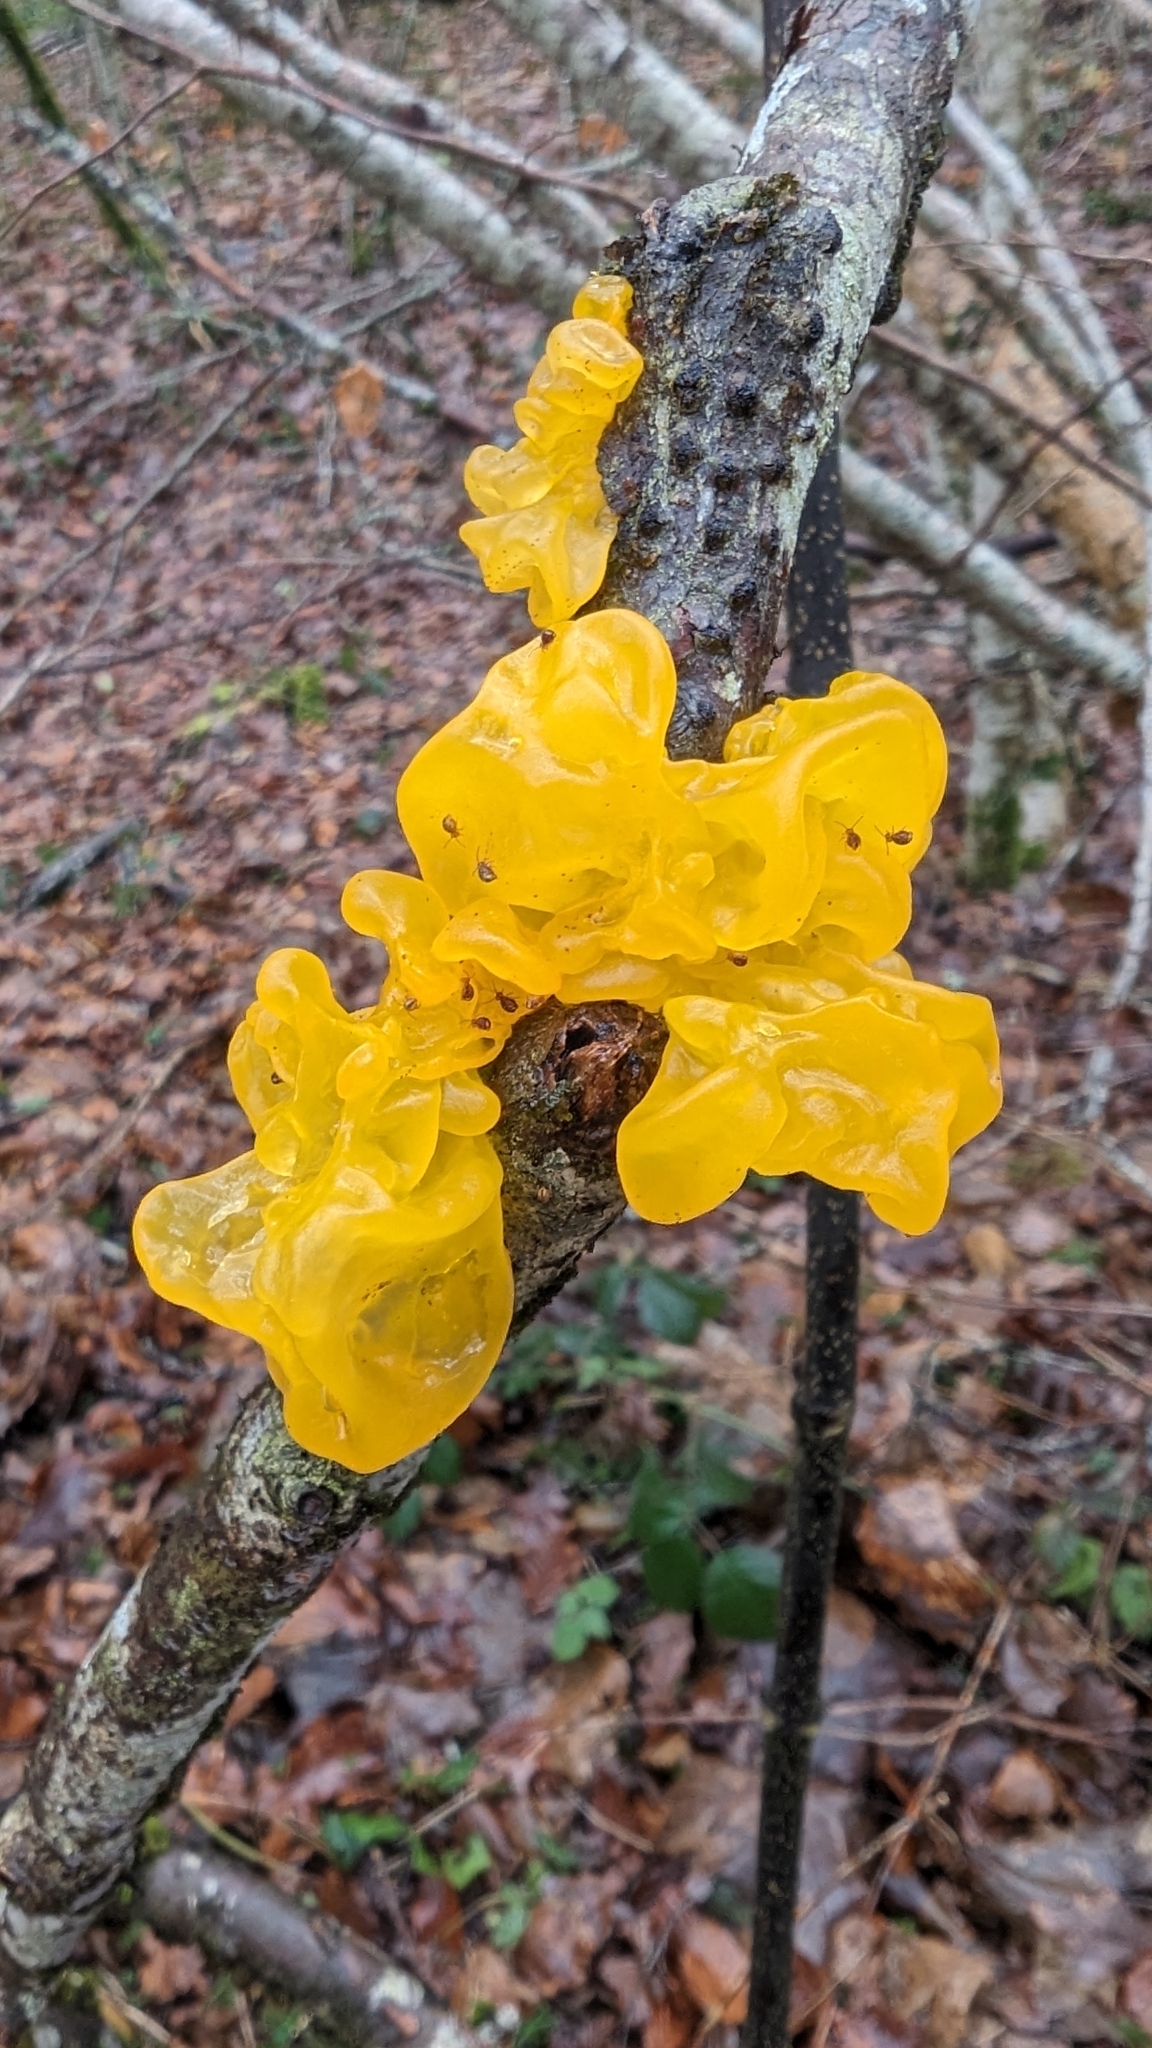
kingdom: Fungi
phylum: Basidiomycota
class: Tremellomycetes
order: Tremellales
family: Tremellaceae
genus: Tremella
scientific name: Tremella mesenterica
